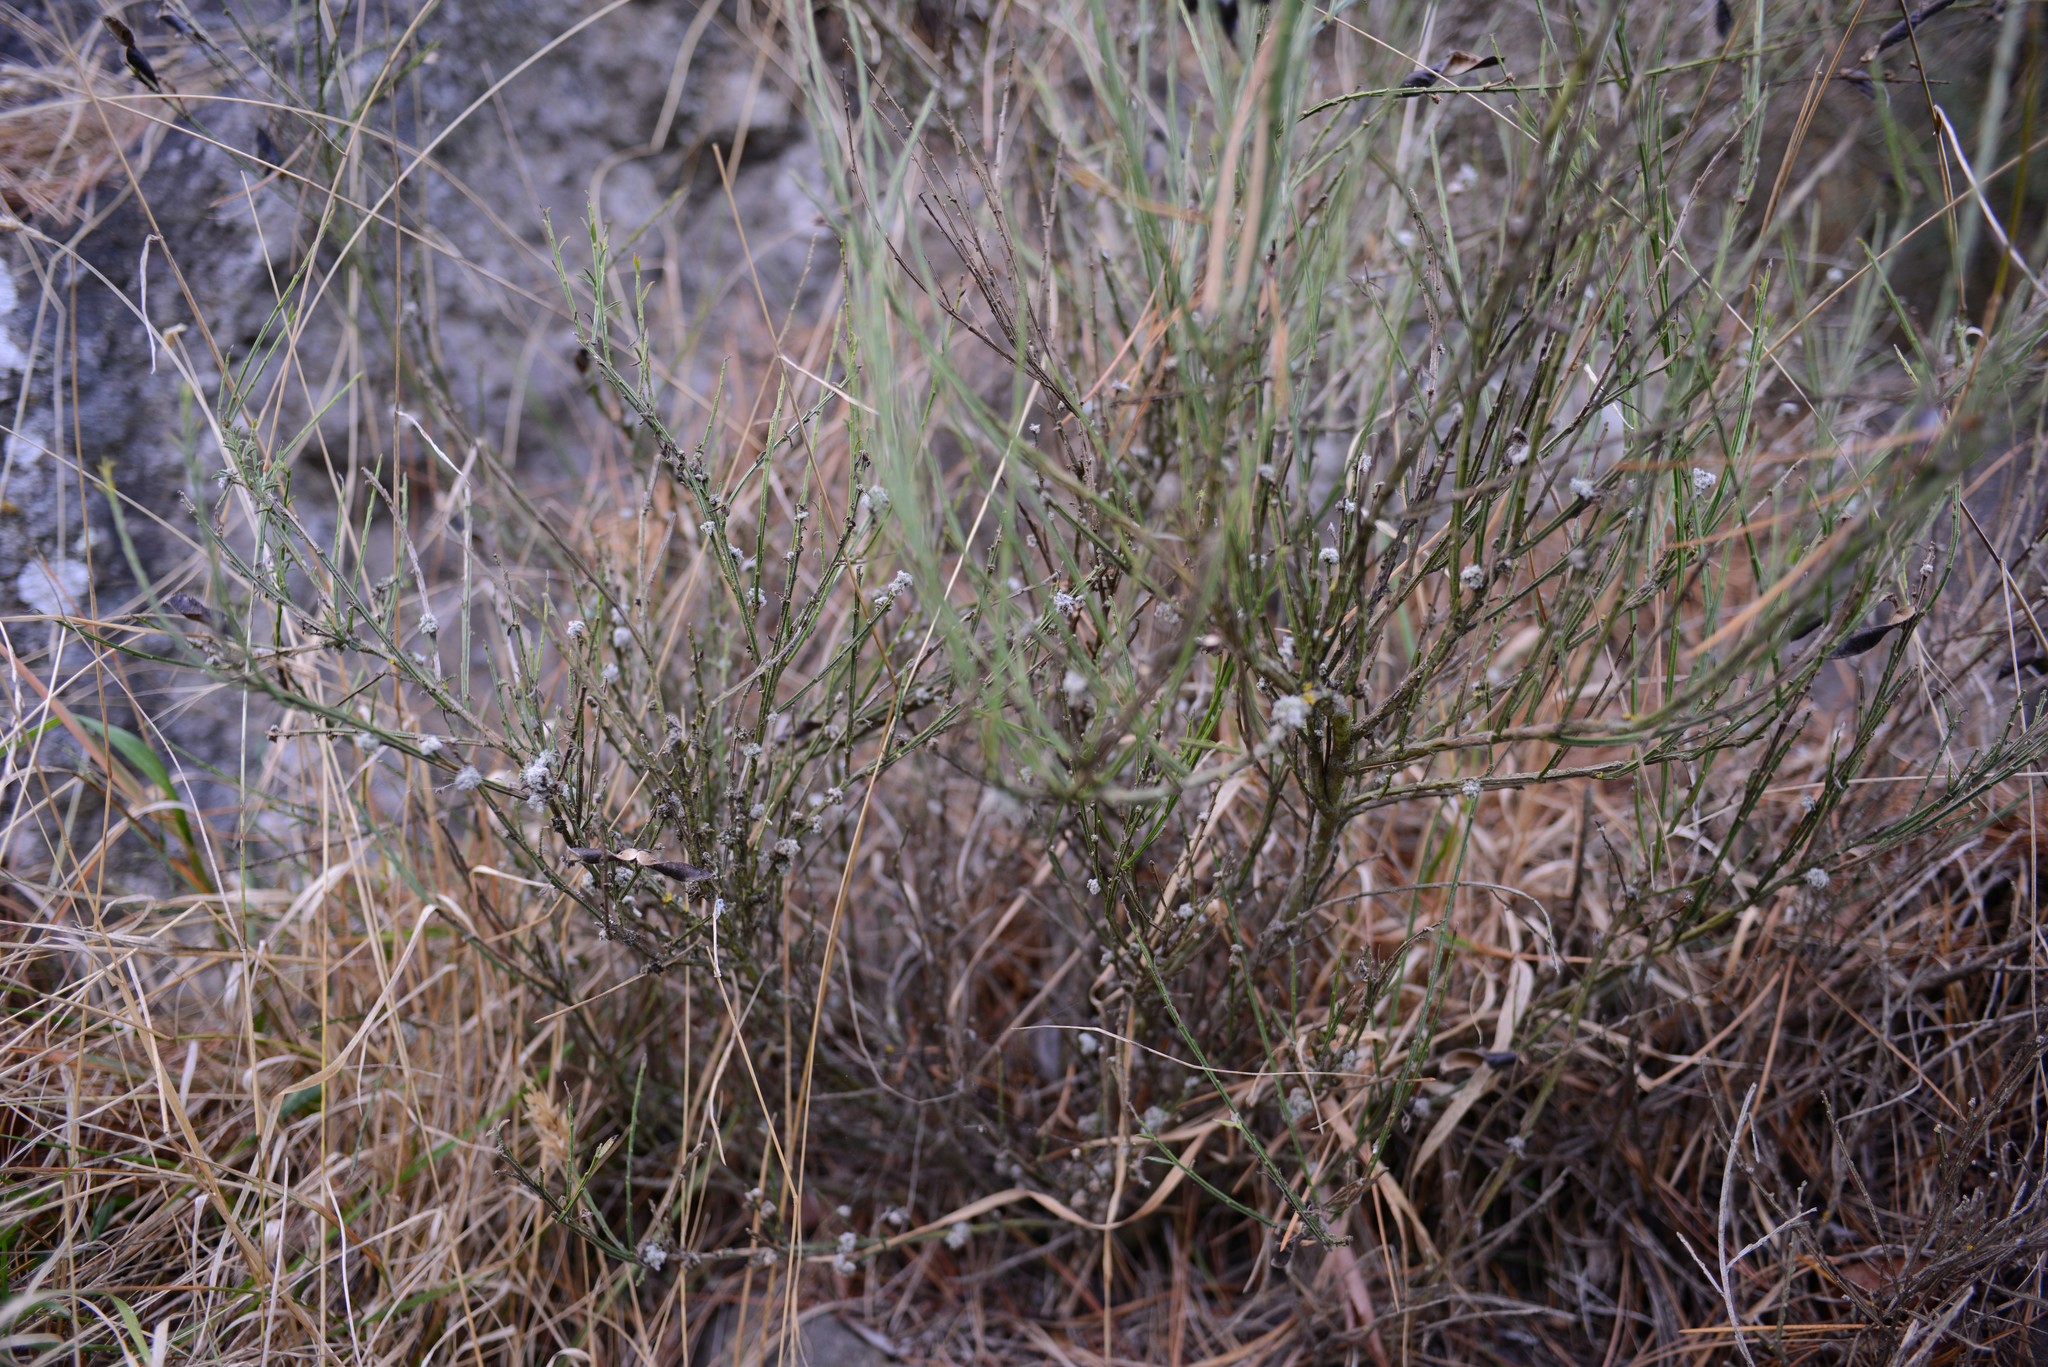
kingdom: Plantae
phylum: Tracheophyta
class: Magnoliopsida
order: Fabales
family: Fabaceae
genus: Cytisus
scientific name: Cytisus scoparius
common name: Scotch broom
